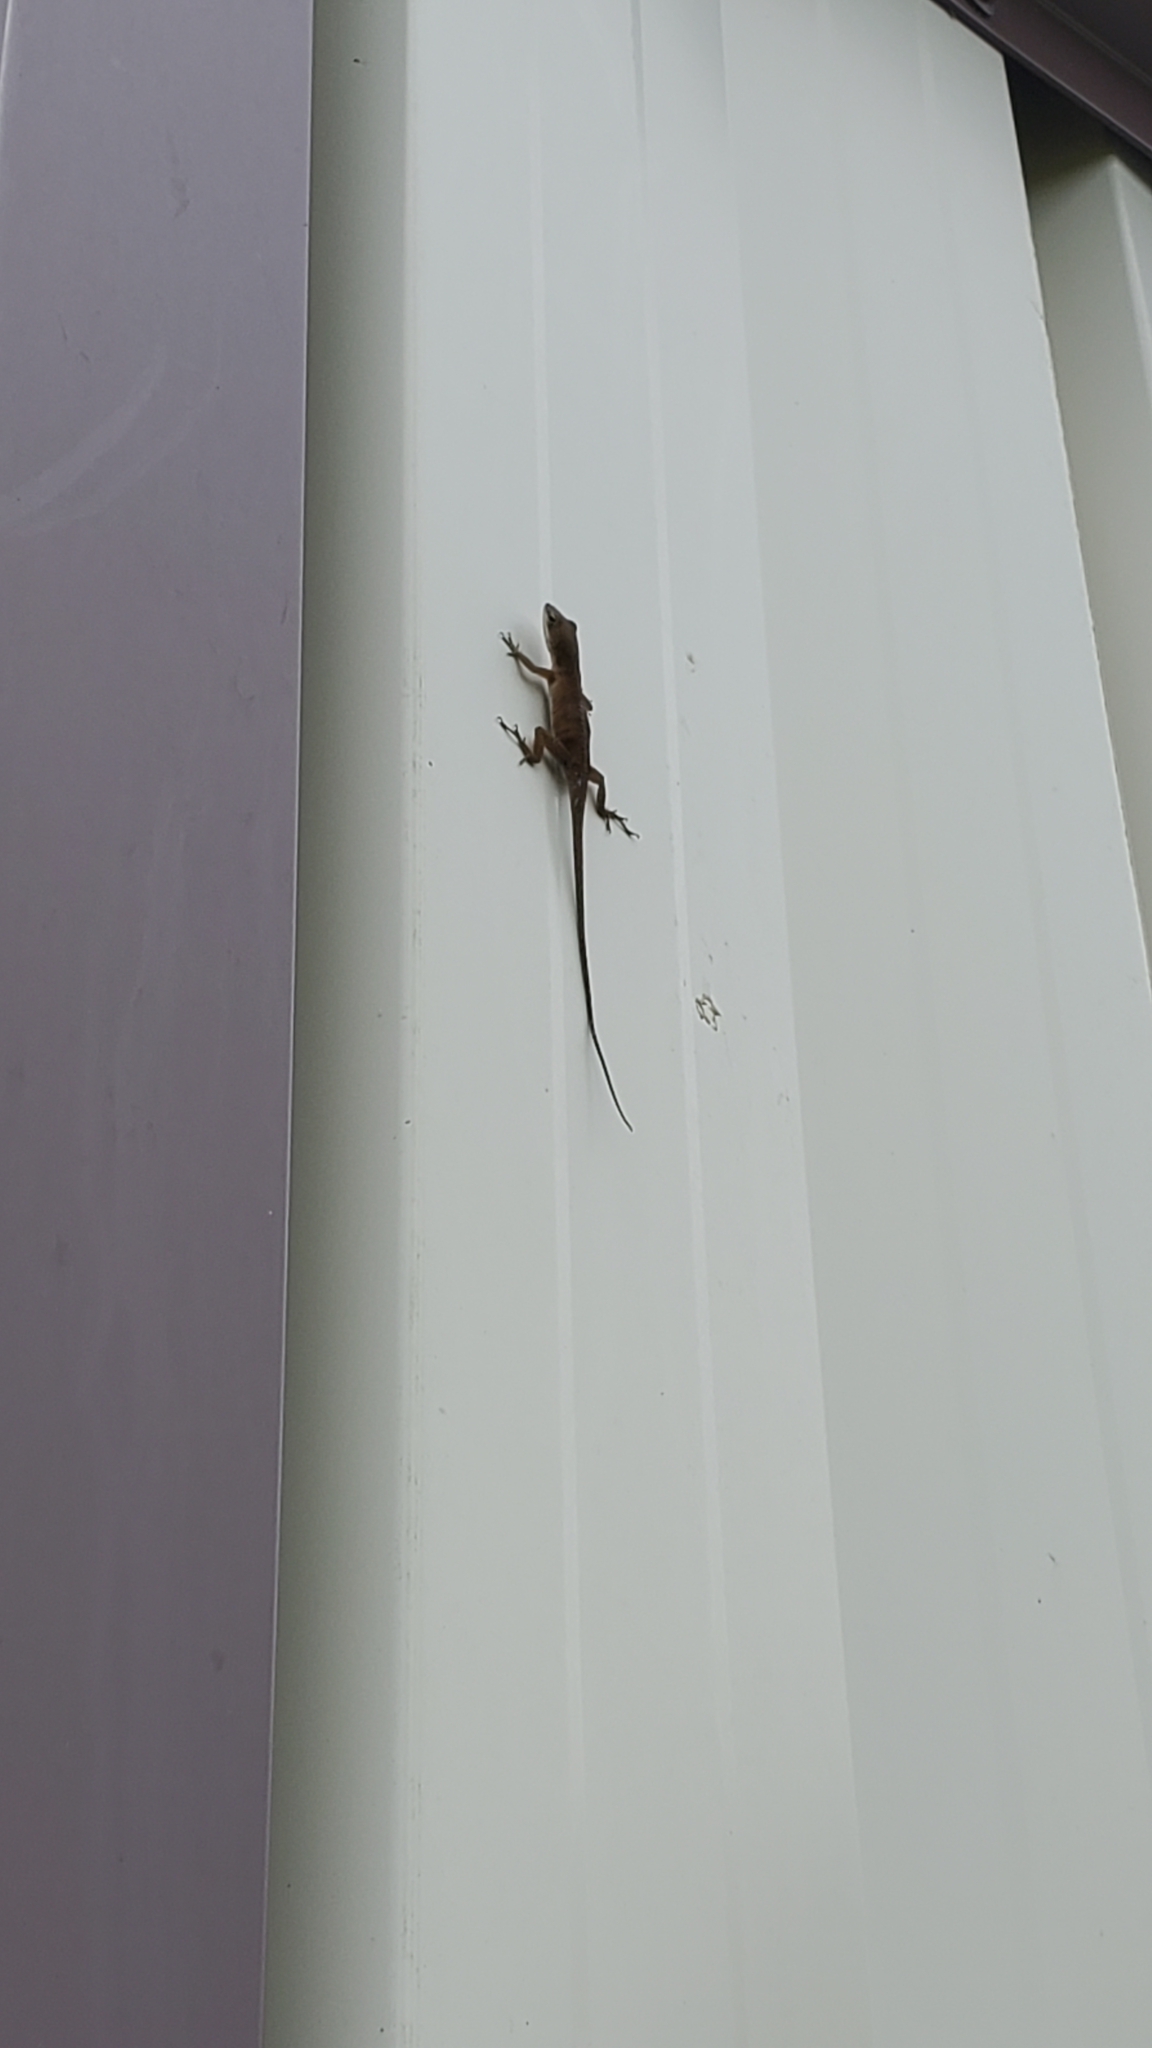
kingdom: Animalia
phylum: Chordata
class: Squamata
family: Dactyloidae
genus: Anolis
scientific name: Anolis carolinensis
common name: Green anole
